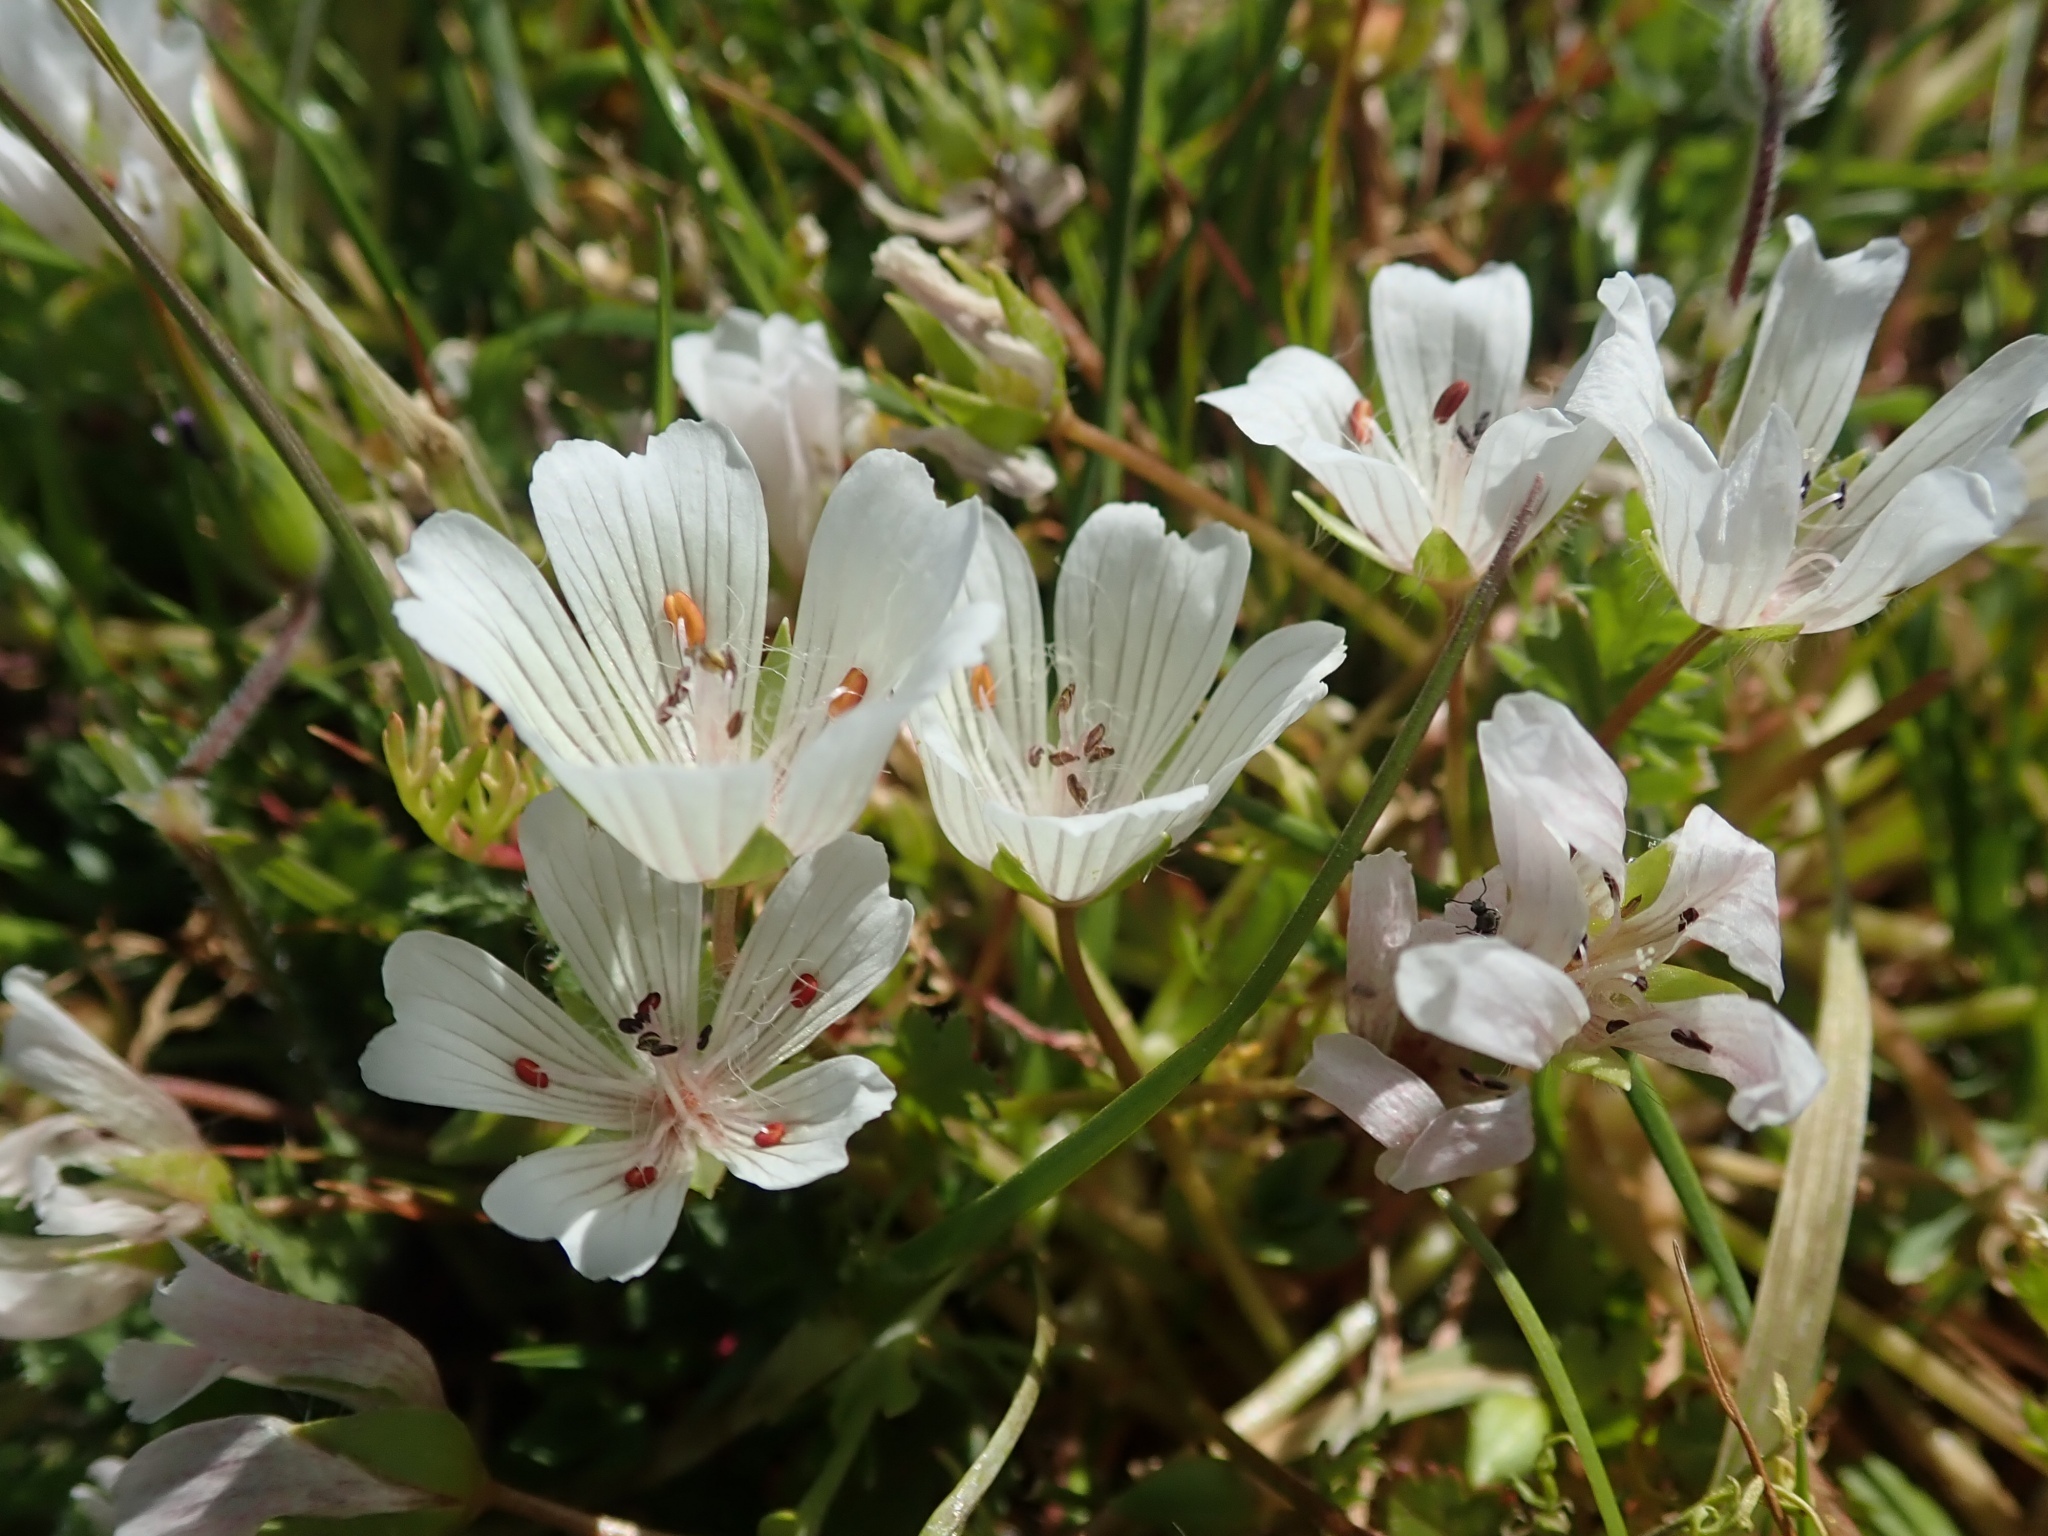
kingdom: Plantae
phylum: Tracheophyta
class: Magnoliopsida
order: Brassicales
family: Limnanthaceae
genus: Limnanthes
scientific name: Limnanthes douglasii
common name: Meadow-foam
